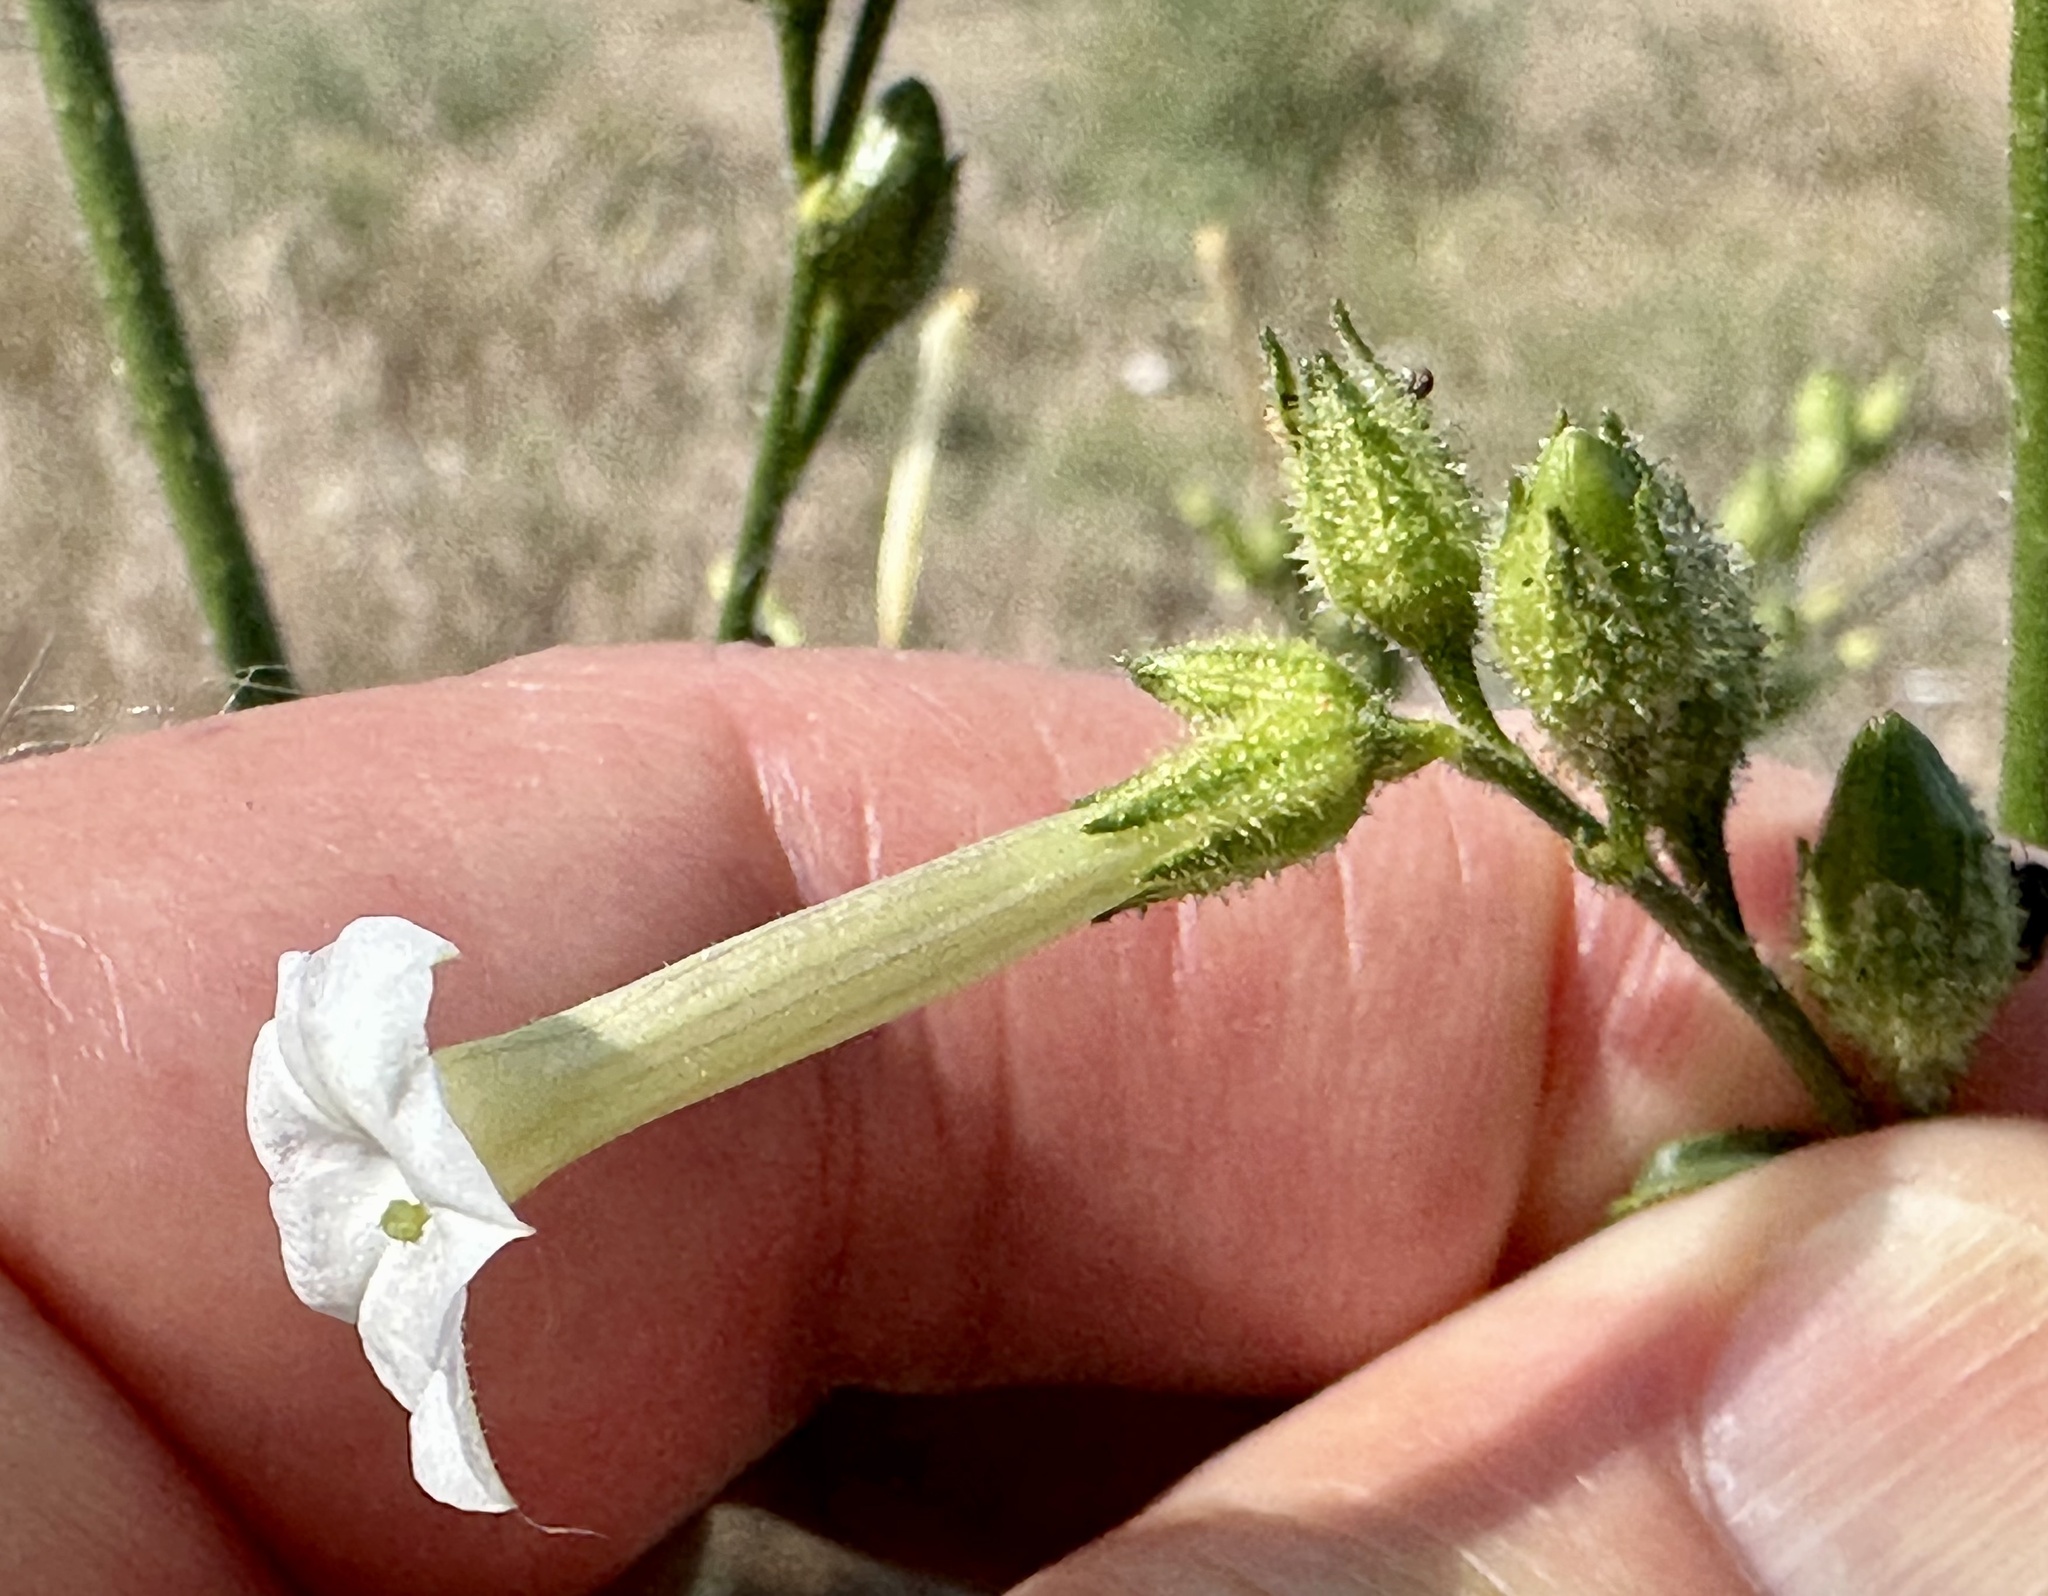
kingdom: Plantae
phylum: Tracheophyta
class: Magnoliopsida
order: Solanales
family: Solanaceae
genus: Nicotiana
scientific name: Nicotiana attenuata
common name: Coyote tobacco
